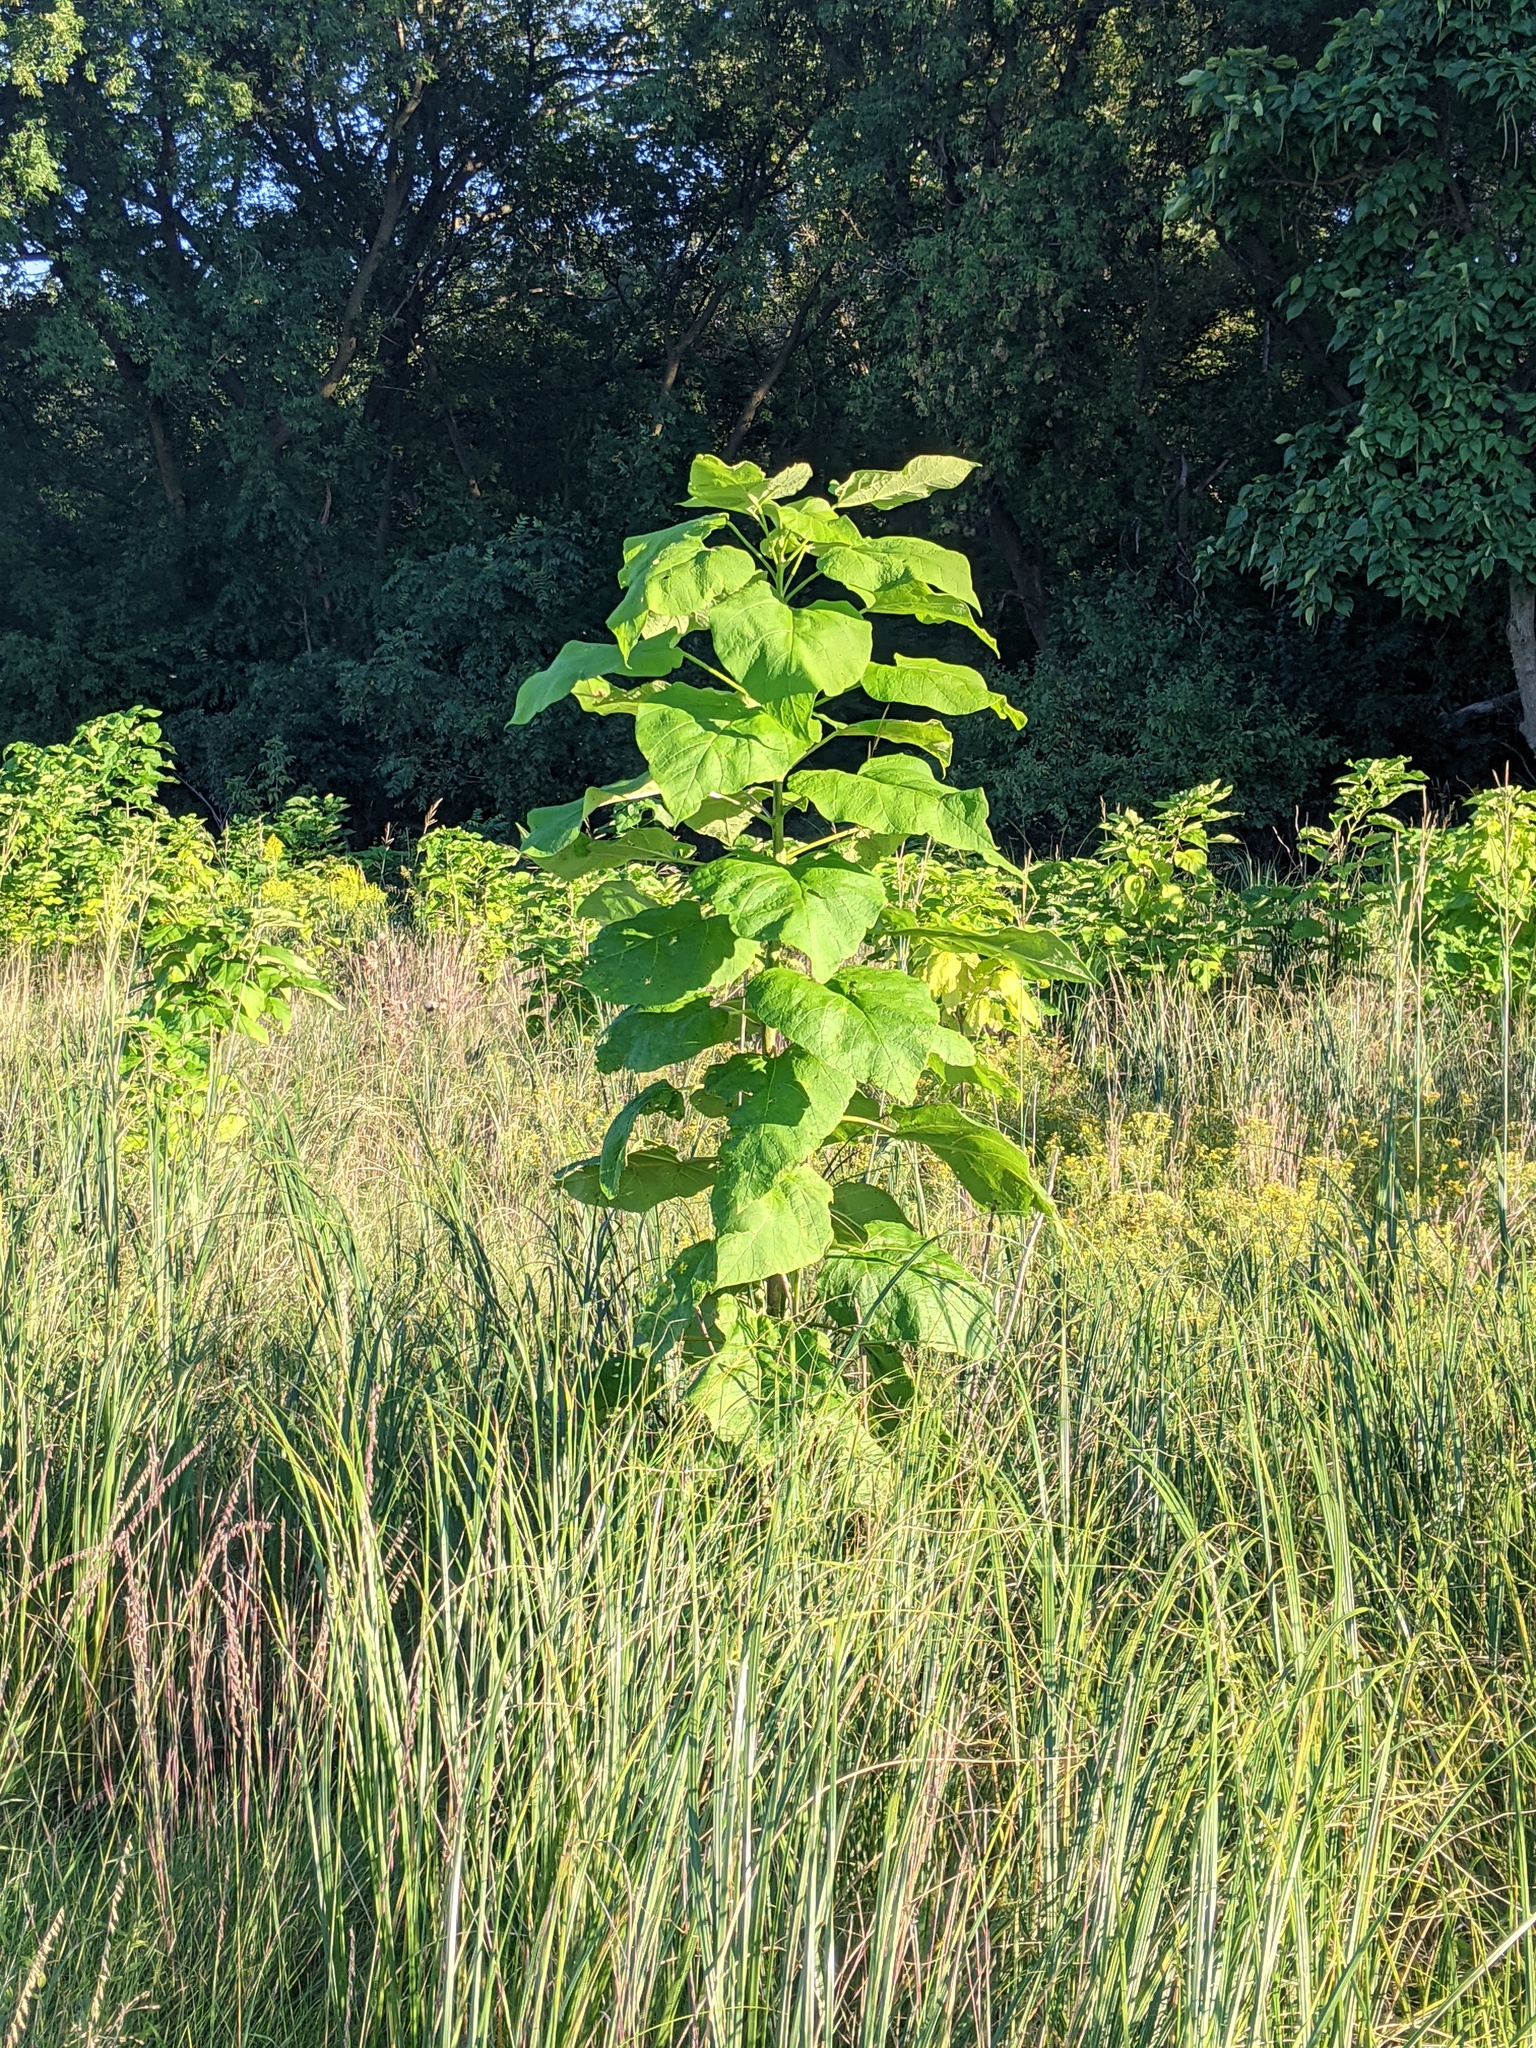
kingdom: Plantae
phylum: Tracheophyta
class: Magnoliopsida
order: Lamiales
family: Bignoniaceae
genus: Catalpa
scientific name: Catalpa speciosa
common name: Northern catalpa
